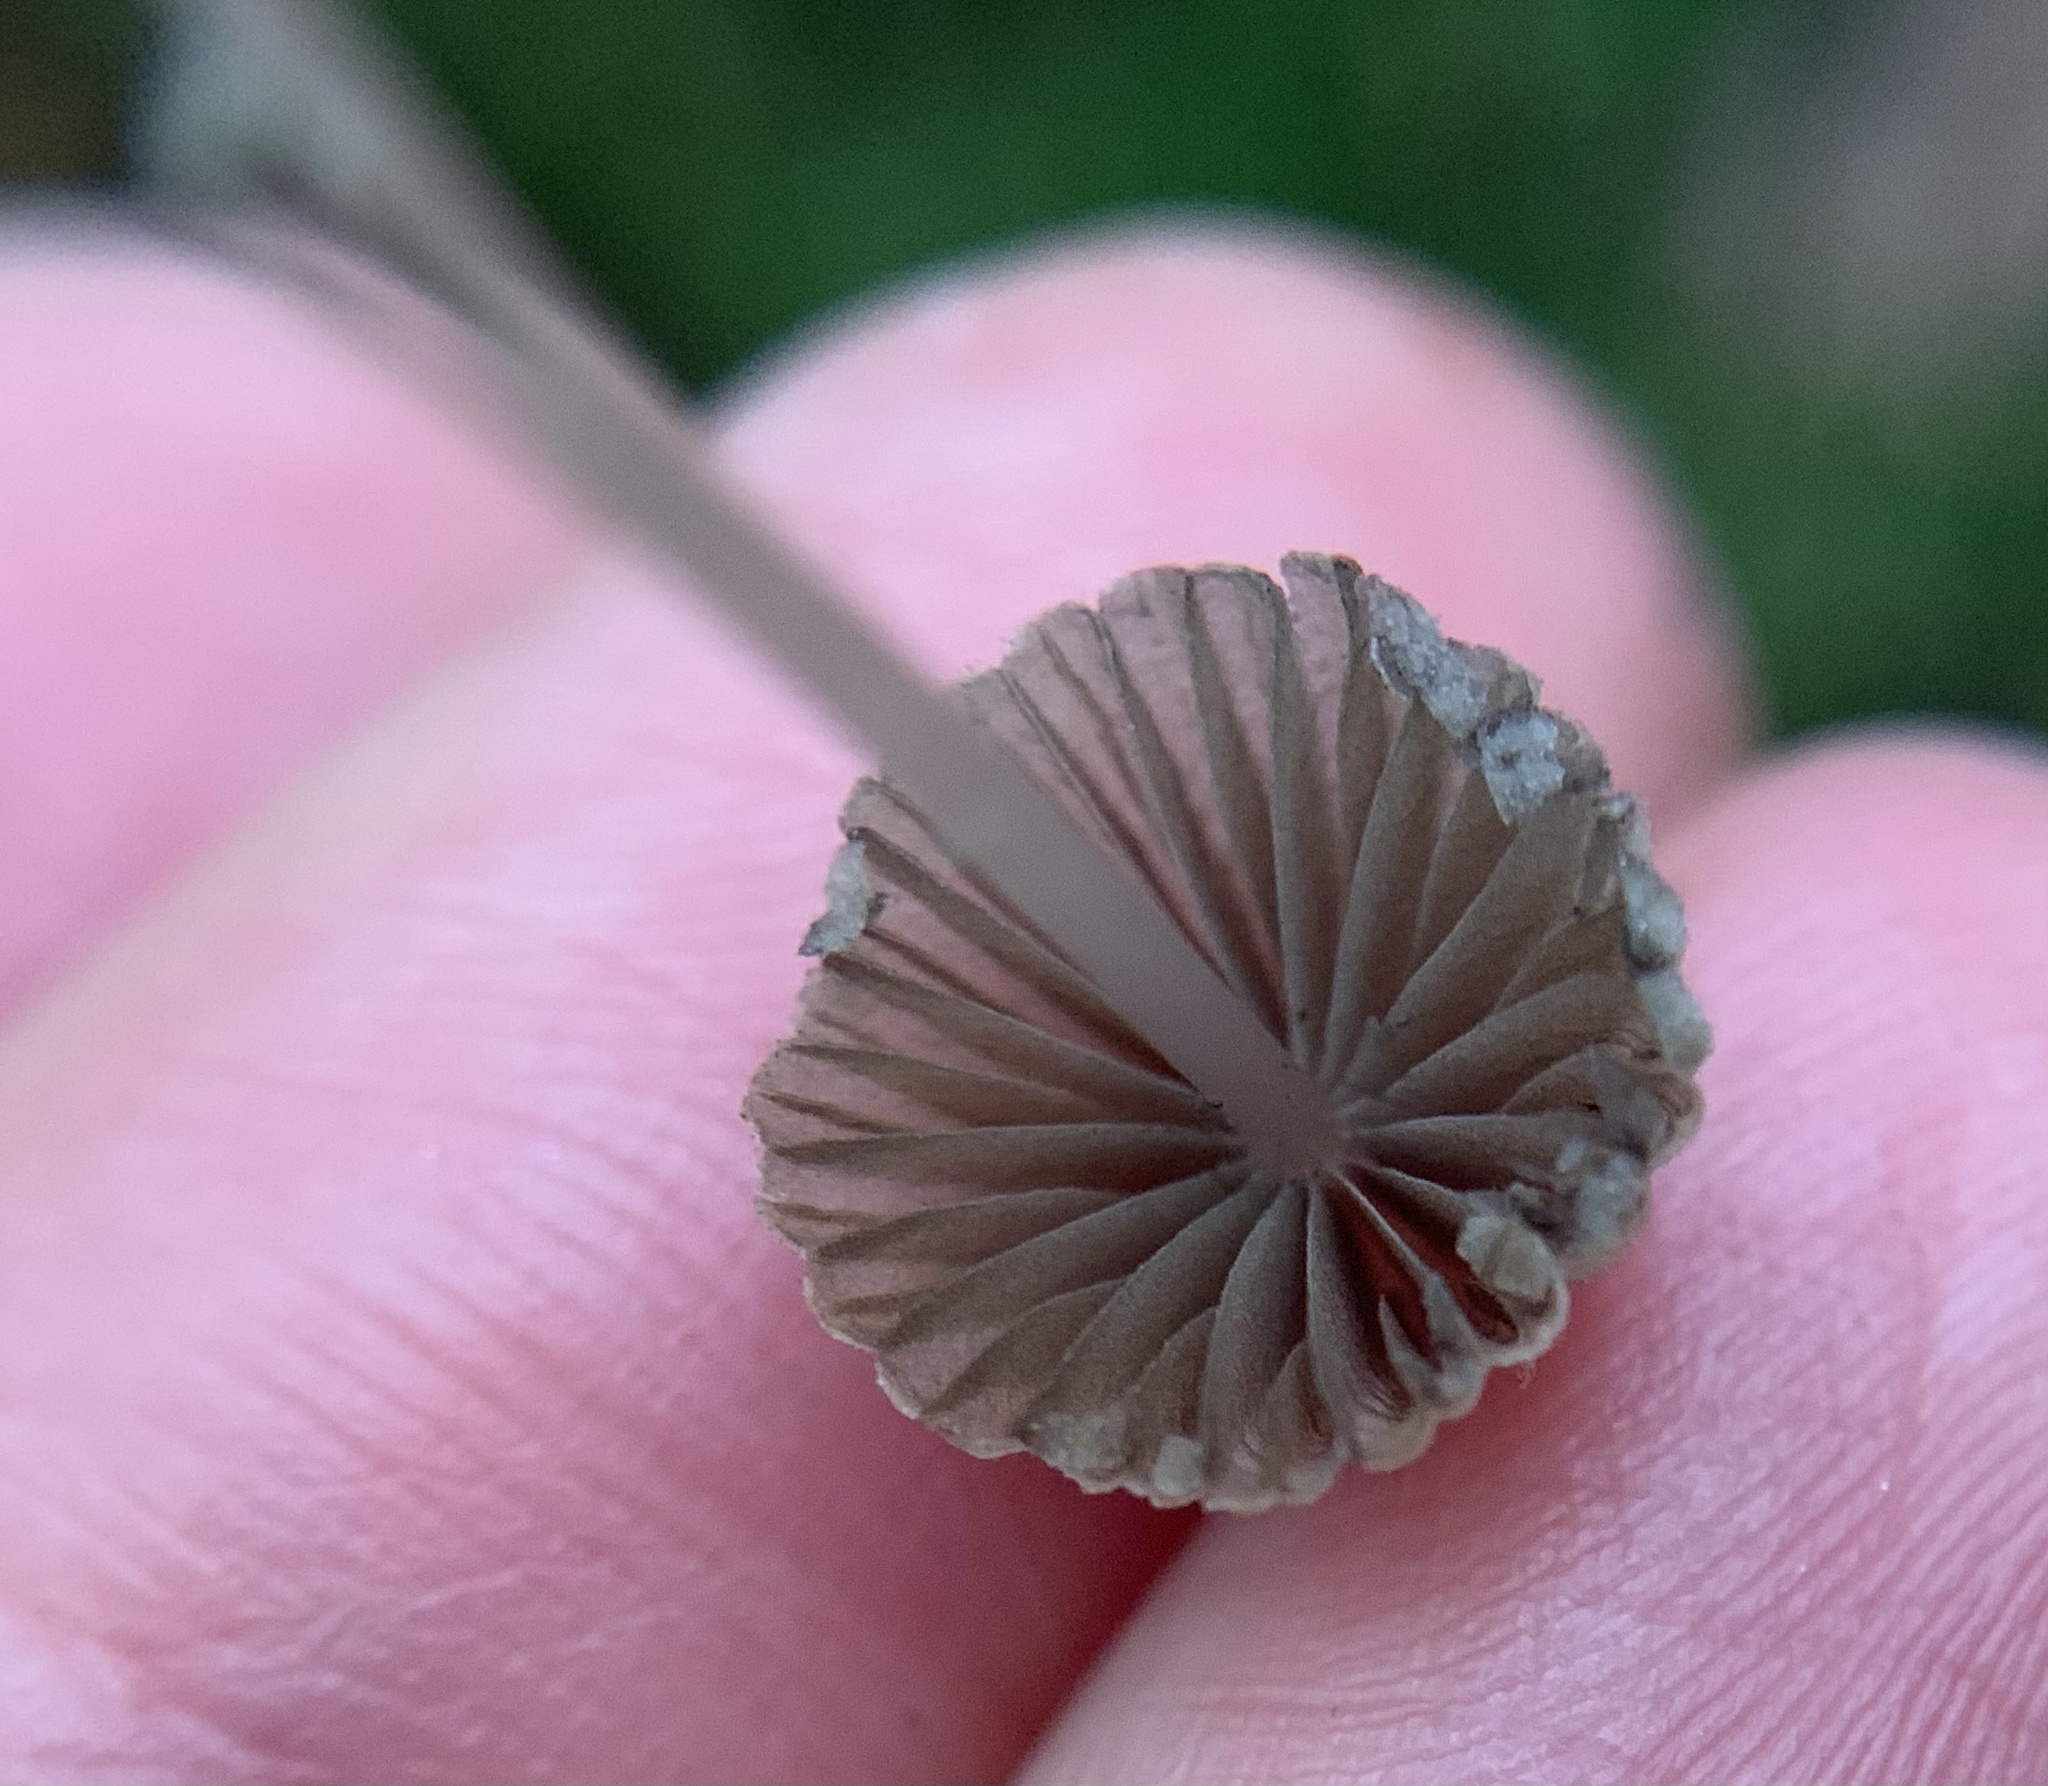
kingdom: Fungi
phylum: Basidiomycota
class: Agaricomycetes
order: Agaricales
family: Psathyrellaceae
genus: Coprinellus
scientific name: Coprinellus disseminatus
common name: Fairies' bonnets
